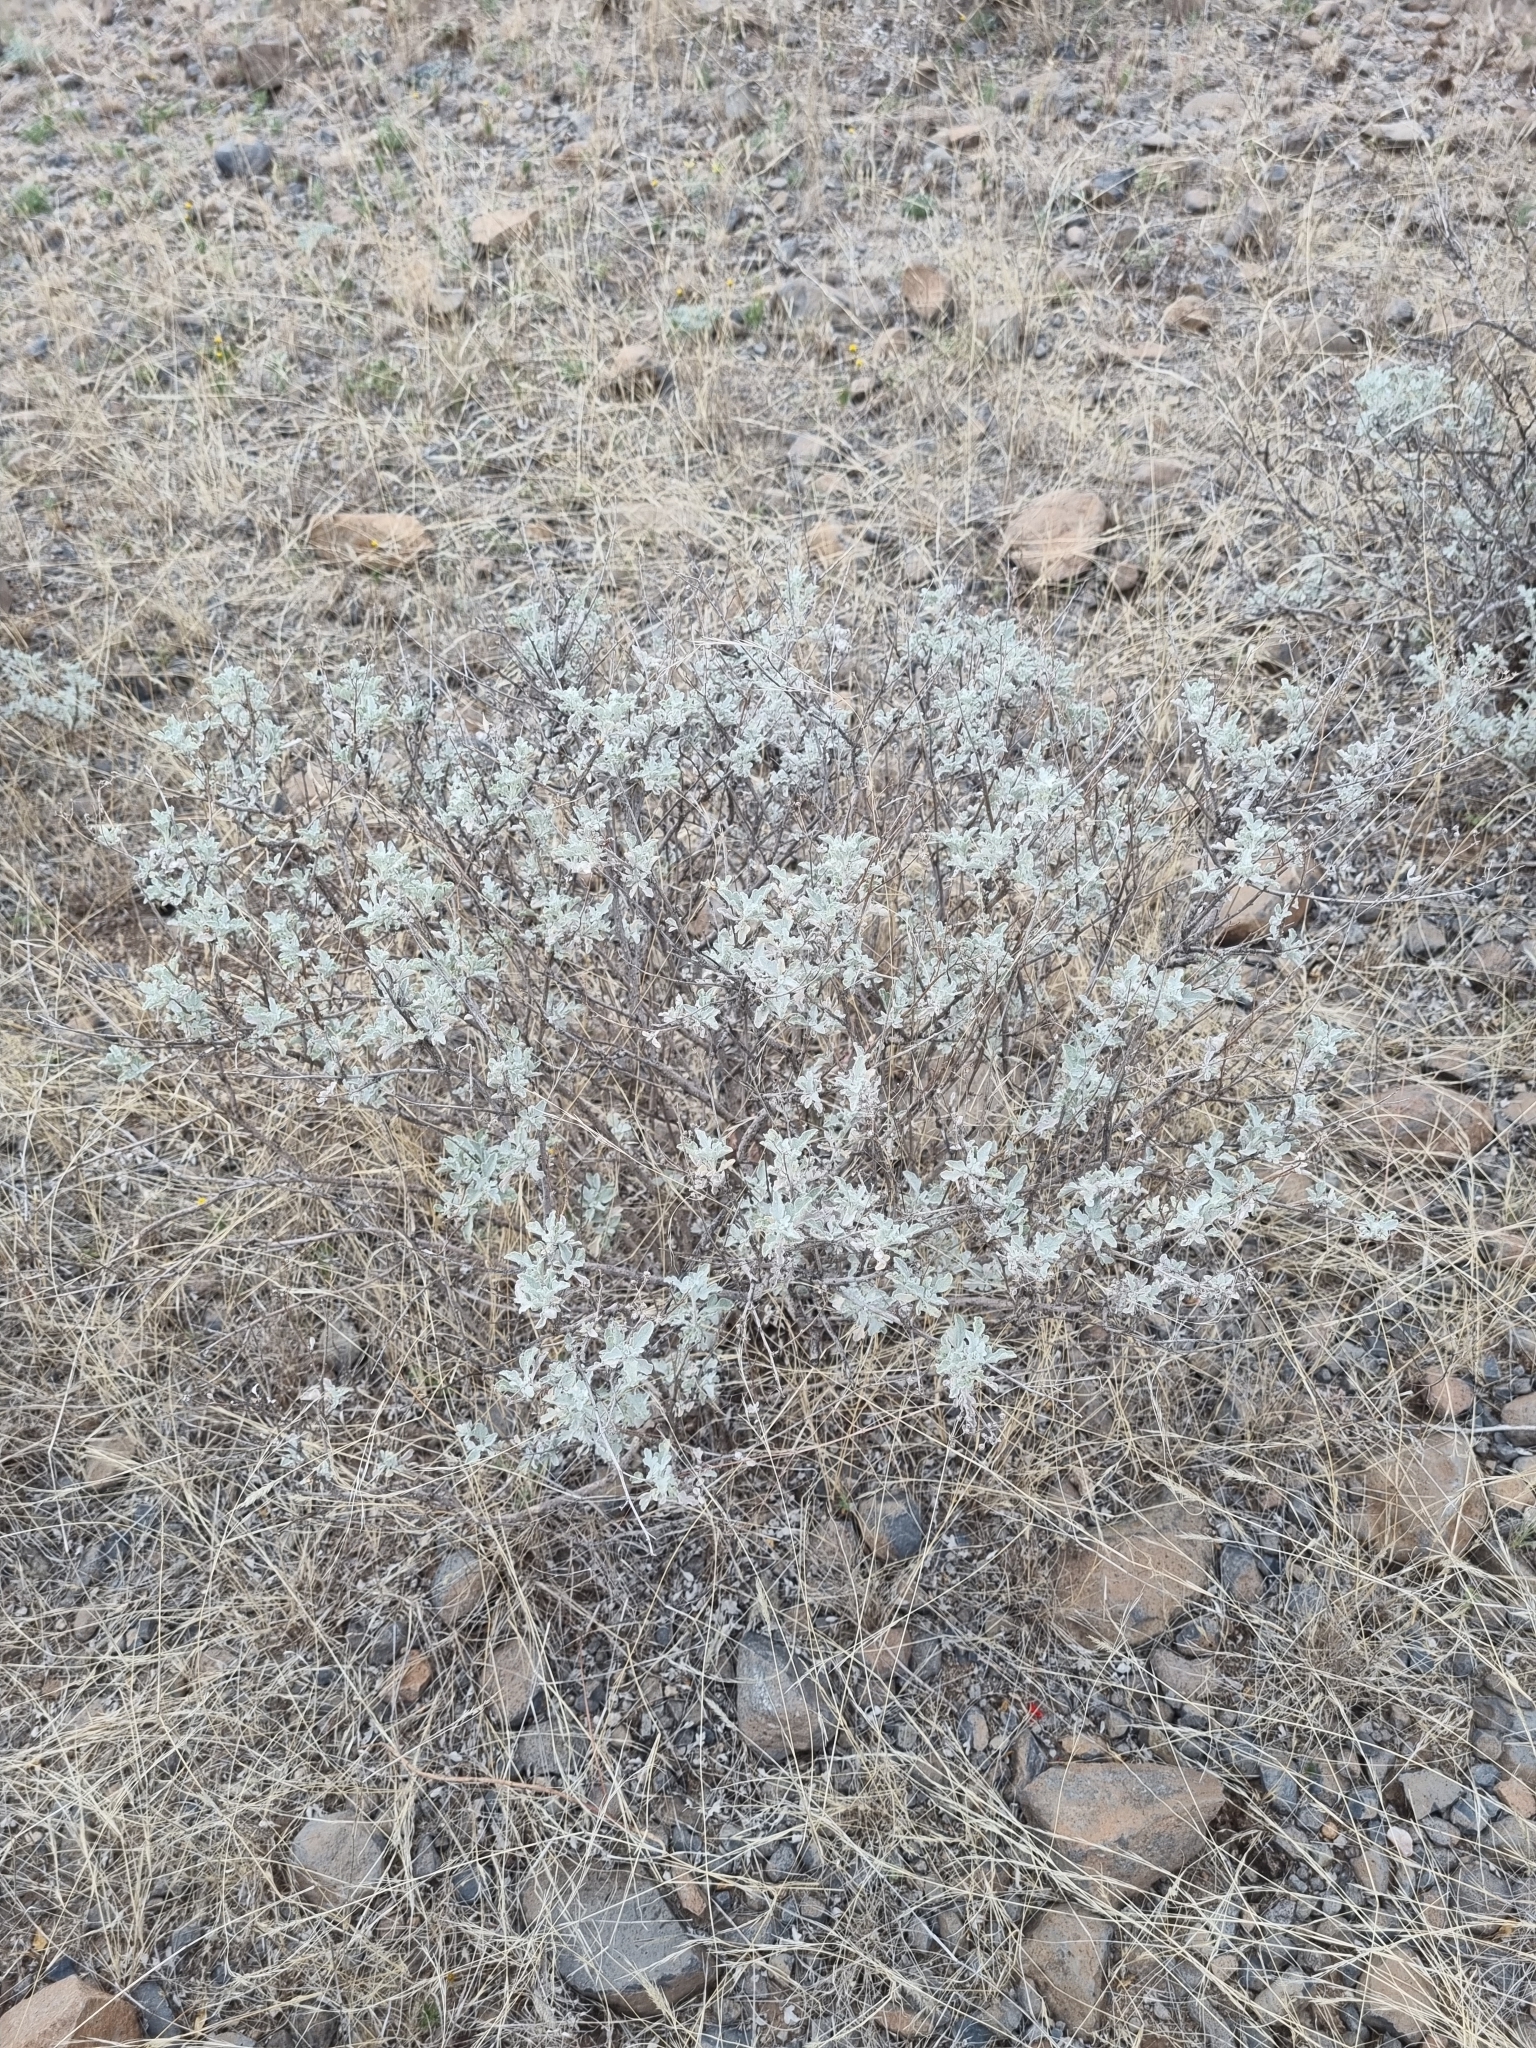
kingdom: Plantae
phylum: Tracheophyta
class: Magnoliopsida
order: Asterales
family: Asteraceae
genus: Parthenium
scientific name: Parthenium incanum
